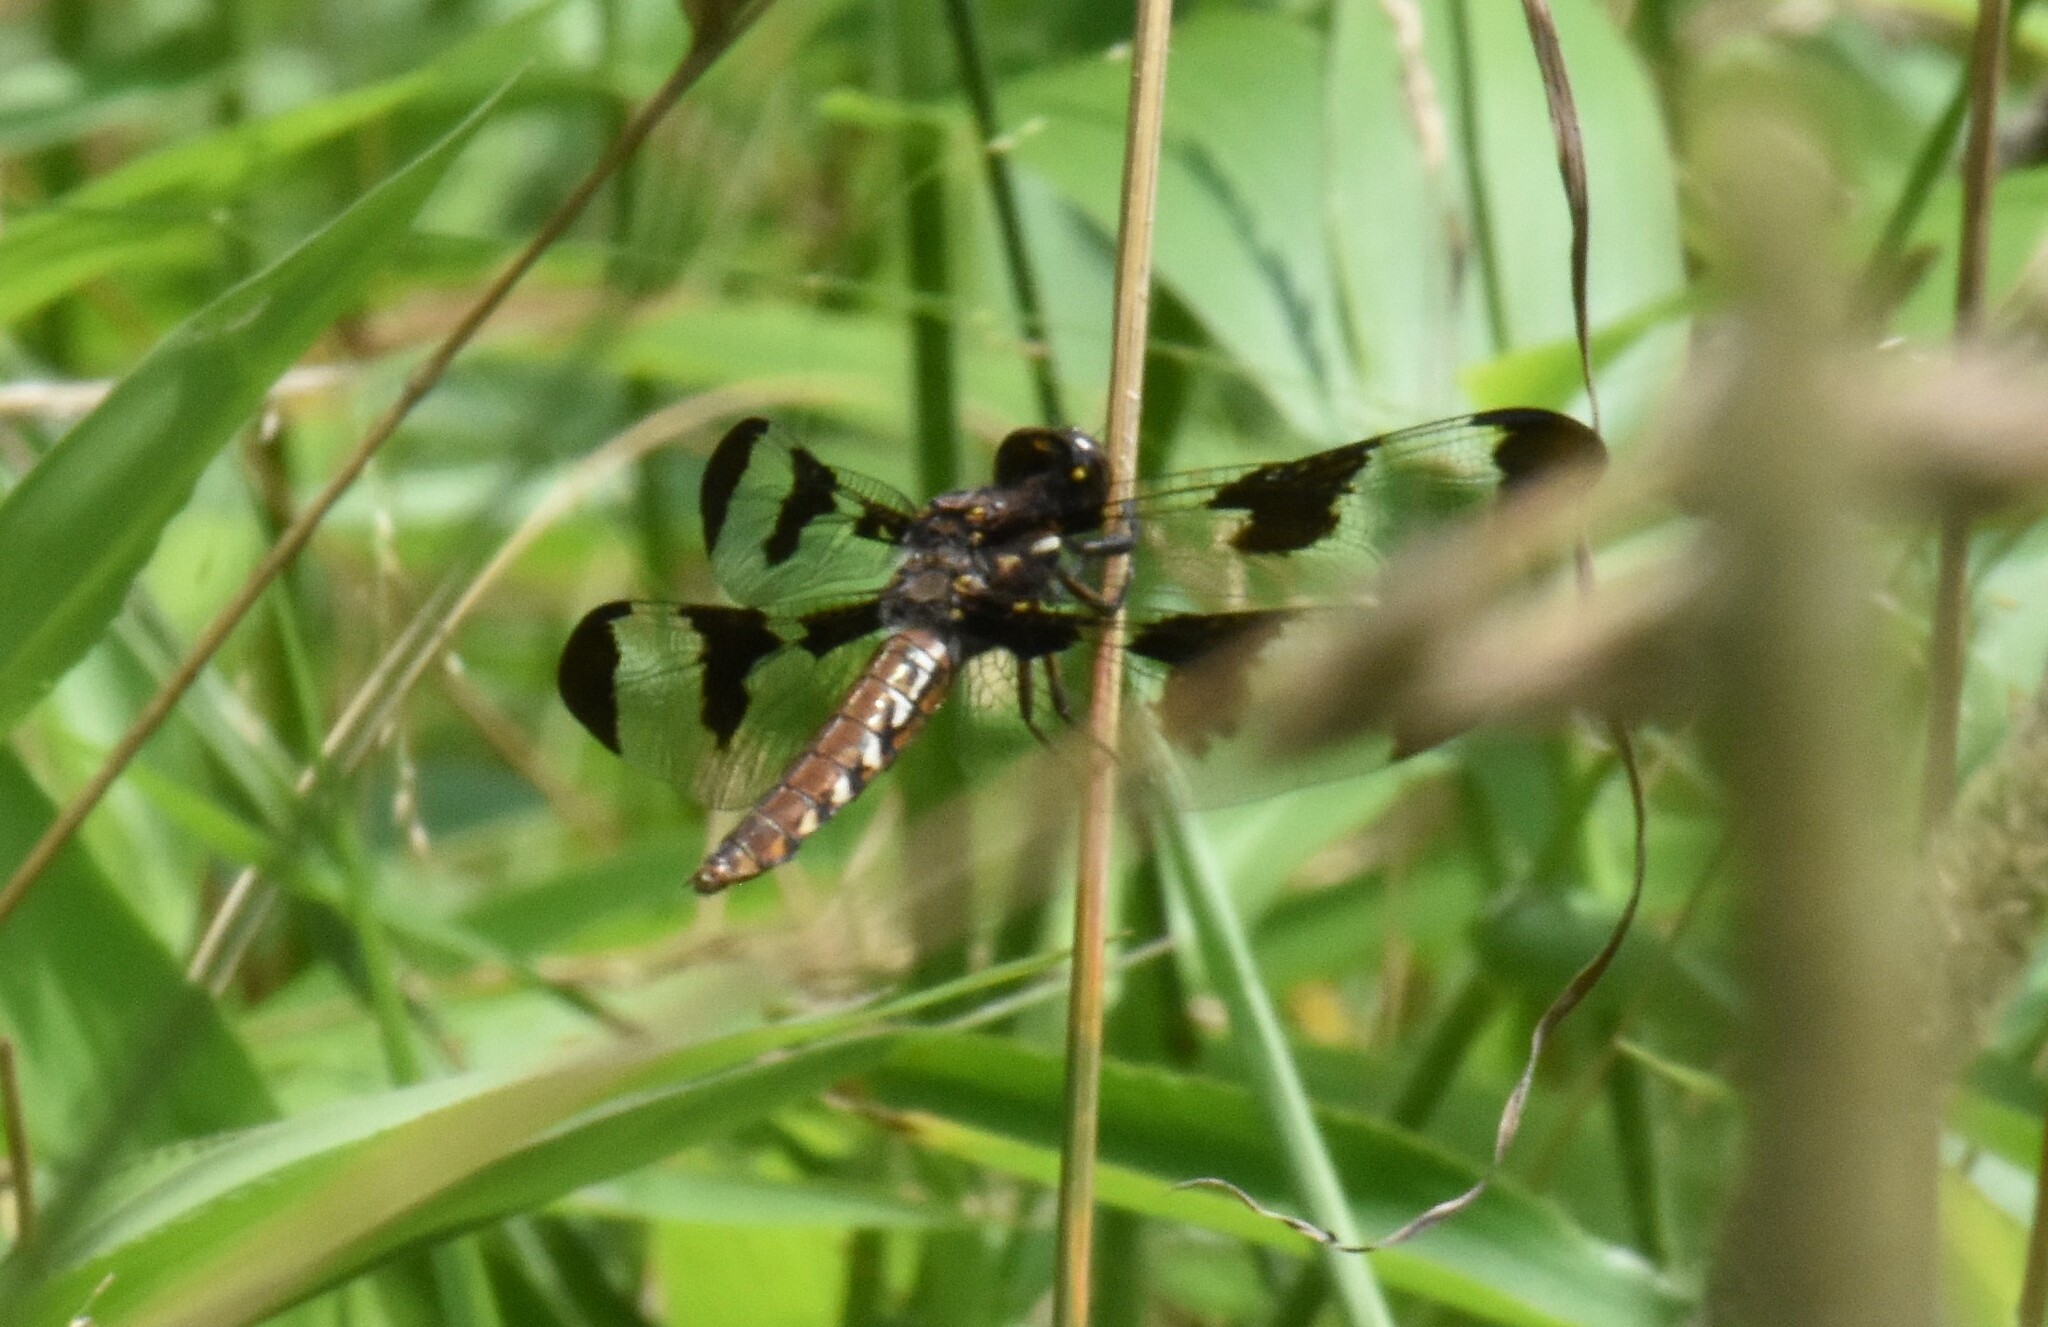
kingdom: Animalia
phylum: Arthropoda
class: Insecta
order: Odonata
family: Libellulidae
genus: Plathemis
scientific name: Plathemis lydia
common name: Common whitetail
